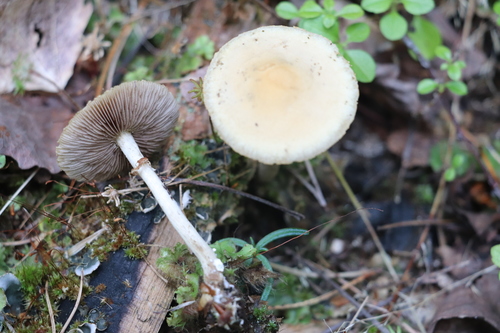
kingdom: Fungi
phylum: Basidiomycota
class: Agaricomycetes
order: Agaricales
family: Strophariaceae
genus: Agrocybe
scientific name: Agrocybe praecox
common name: Spring fieldcap
